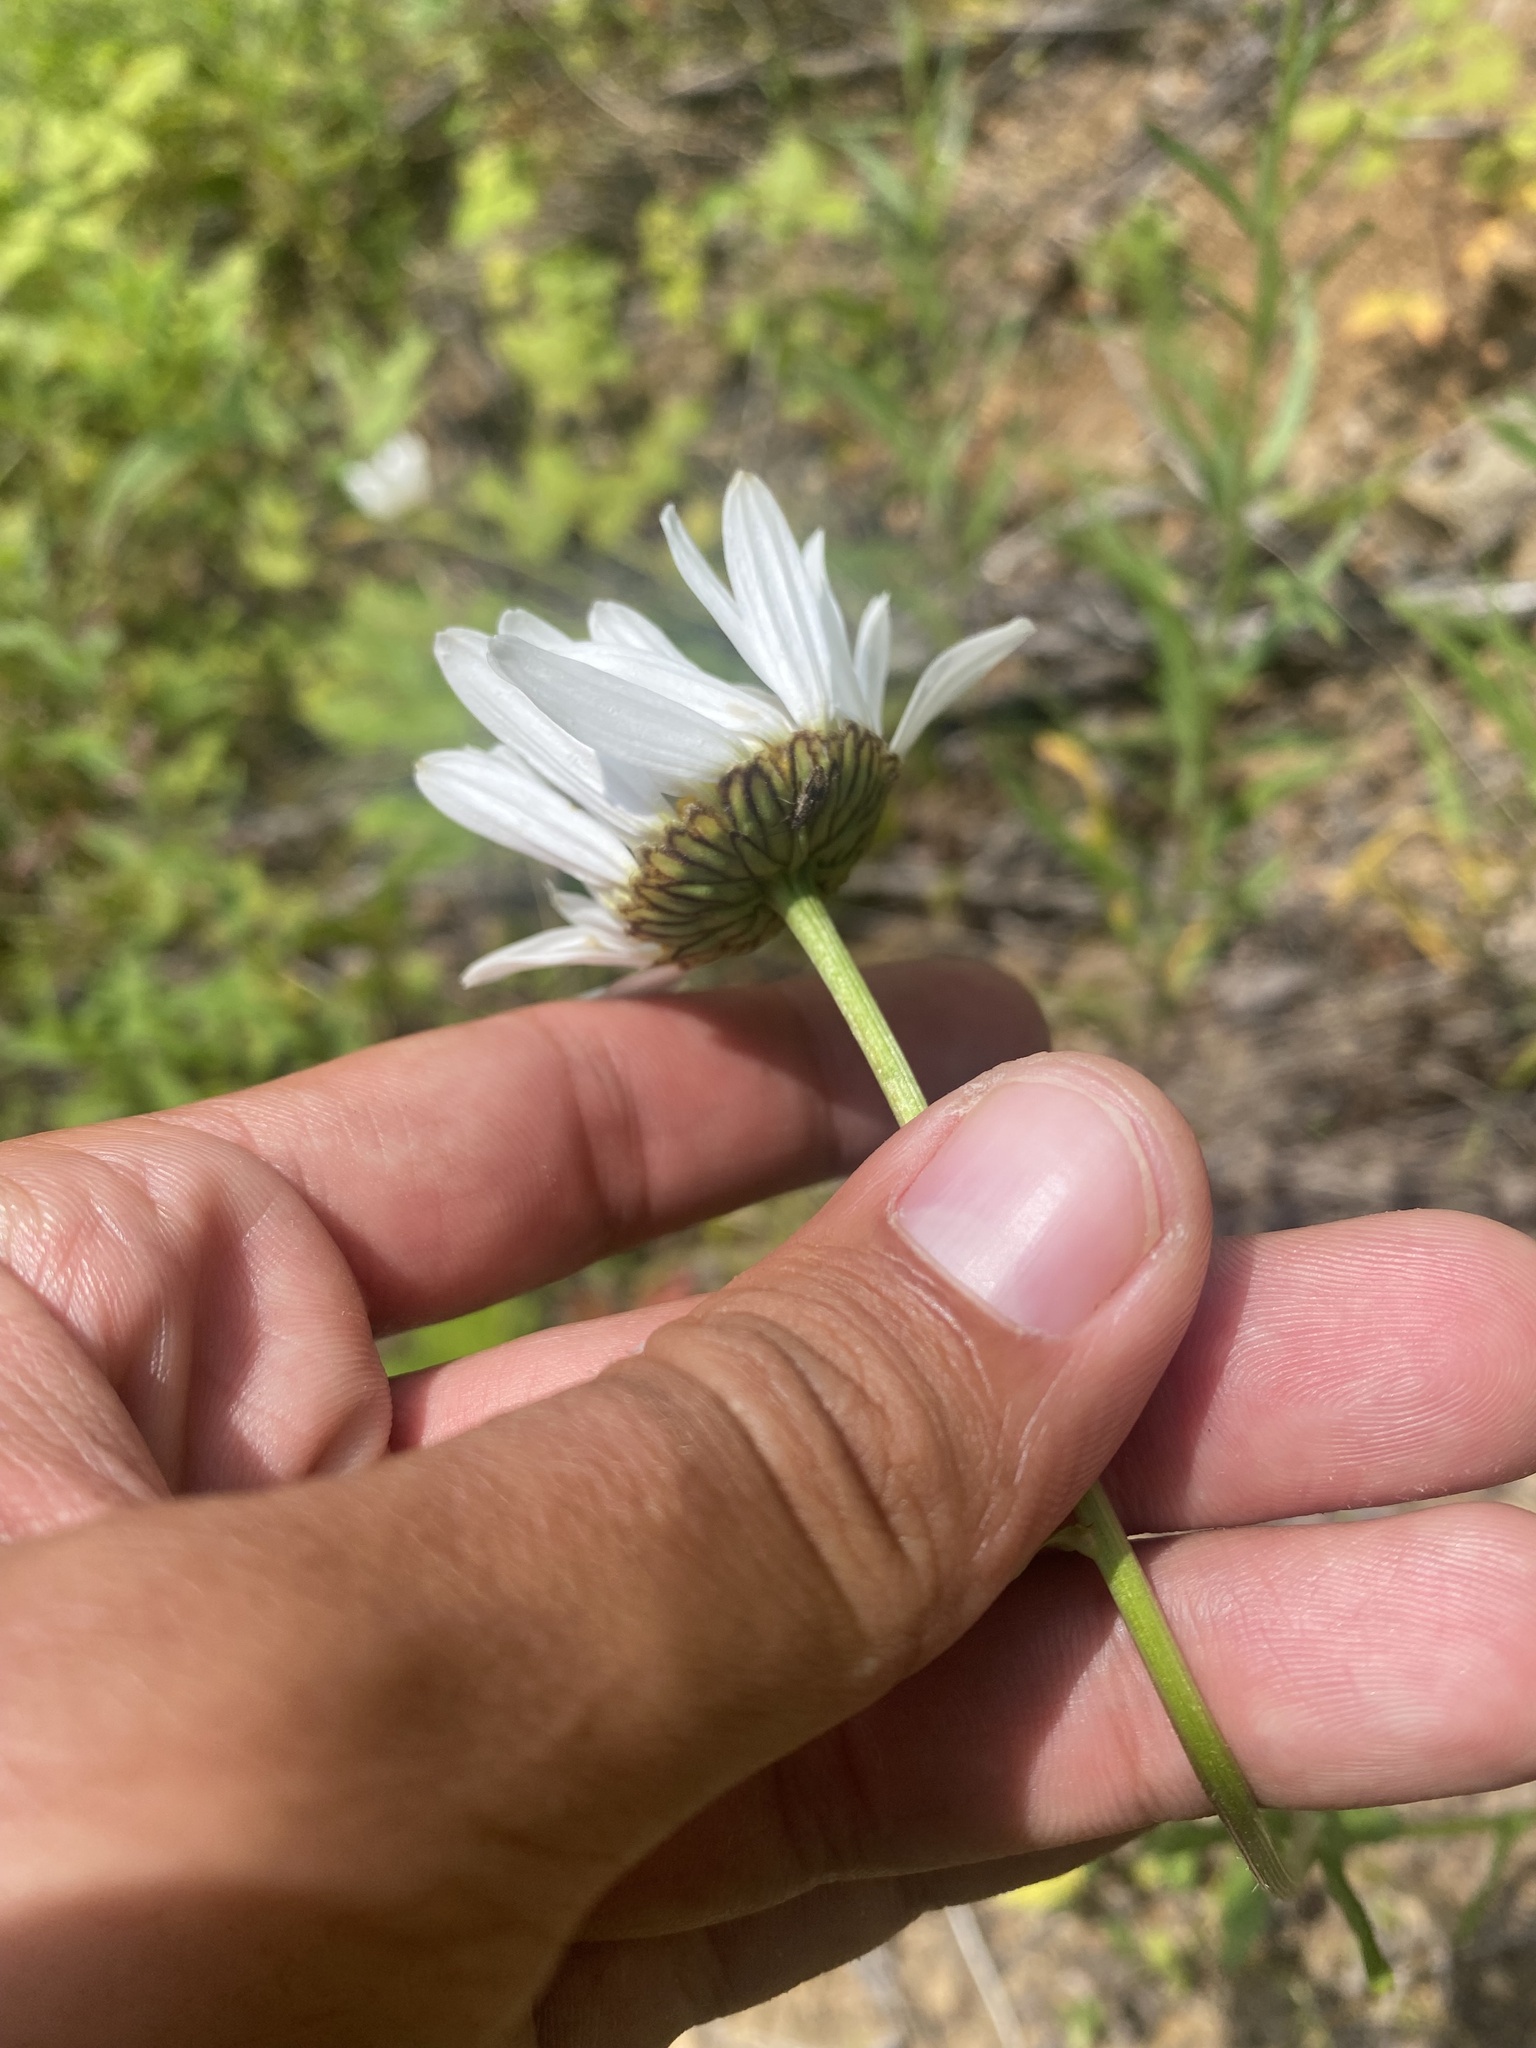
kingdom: Plantae
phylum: Tracheophyta
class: Magnoliopsida
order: Asterales
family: Asteraceae
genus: Leucanthemum
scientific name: Leucanthemum ircutianum
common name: Daisy
